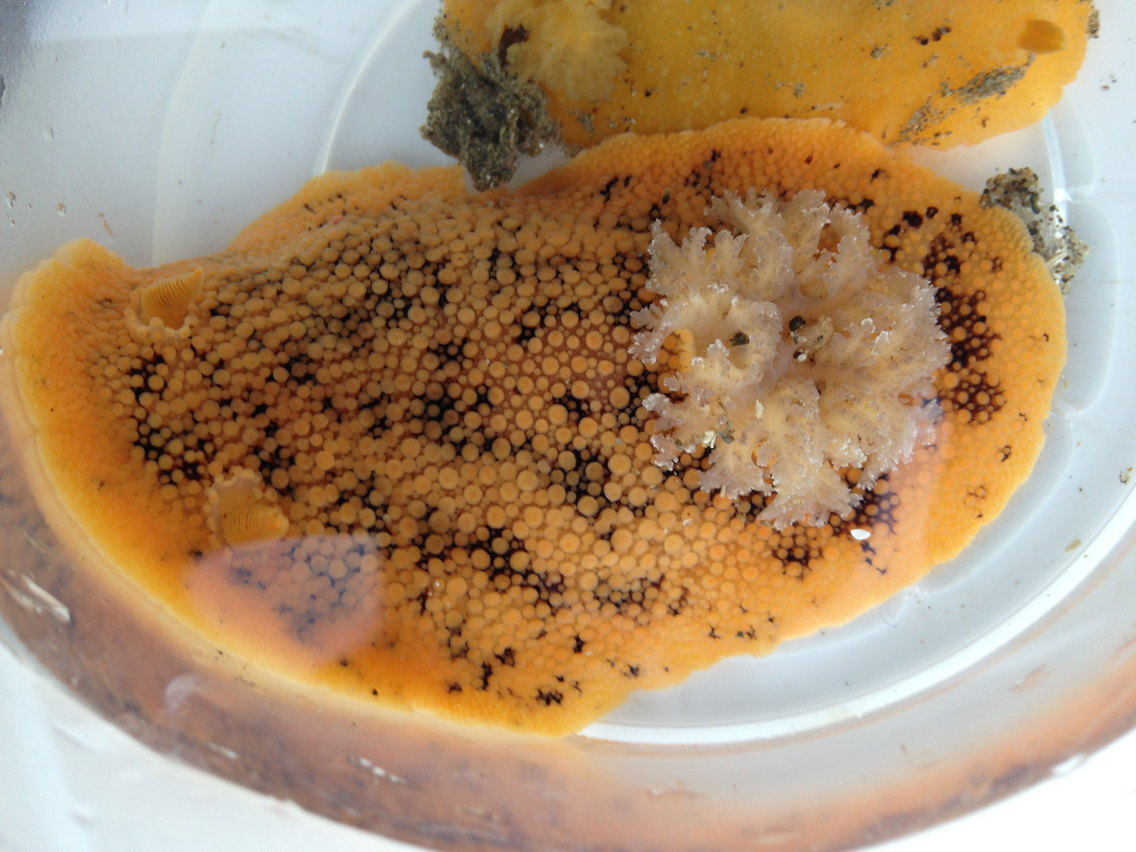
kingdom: Animalia
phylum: Mollusca
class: Gastropoda
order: Nudibranchia
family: Discodorididae
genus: Peltodoris
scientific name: Peltodoris nobilis
